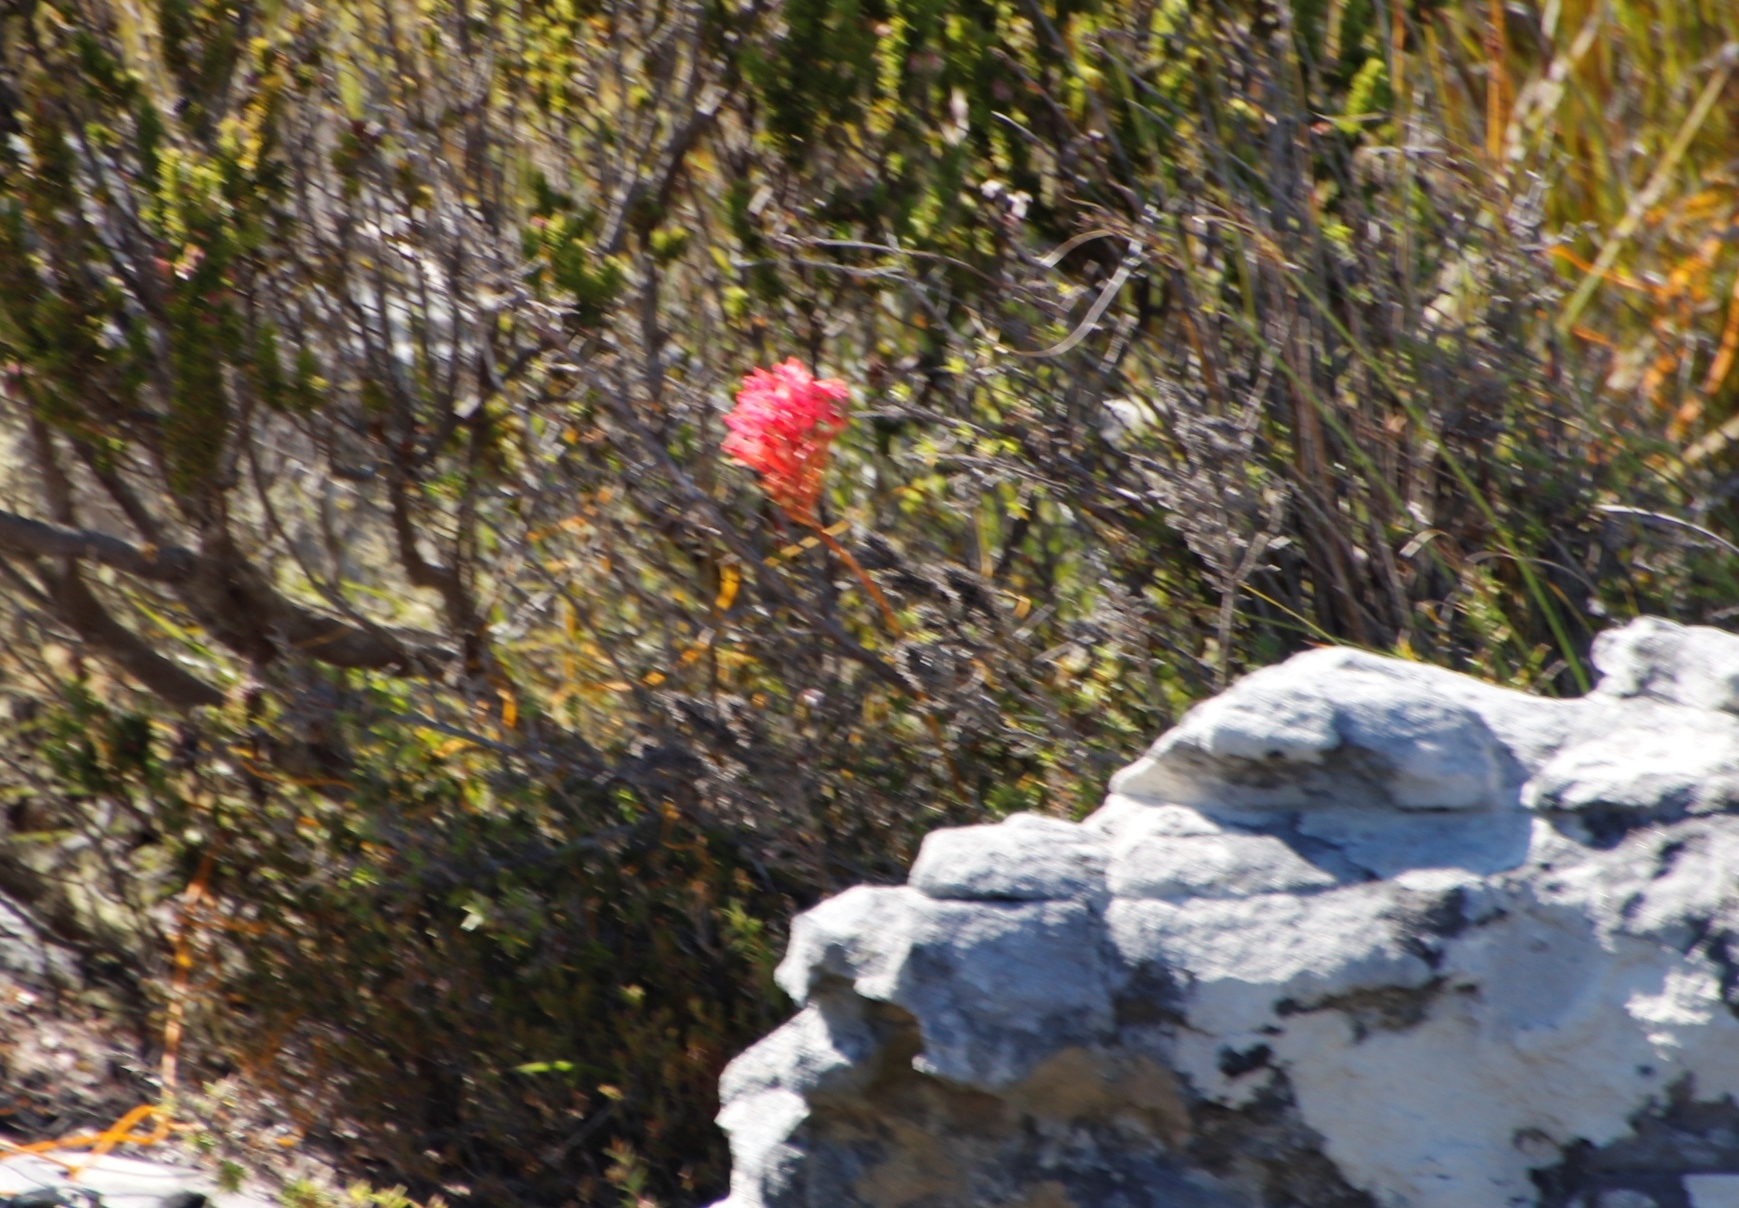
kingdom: Plantae
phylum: Tracheophyta
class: Liliopsida
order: Asparagales
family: Orchidaceae
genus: Disa
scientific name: Disa ferruginea
